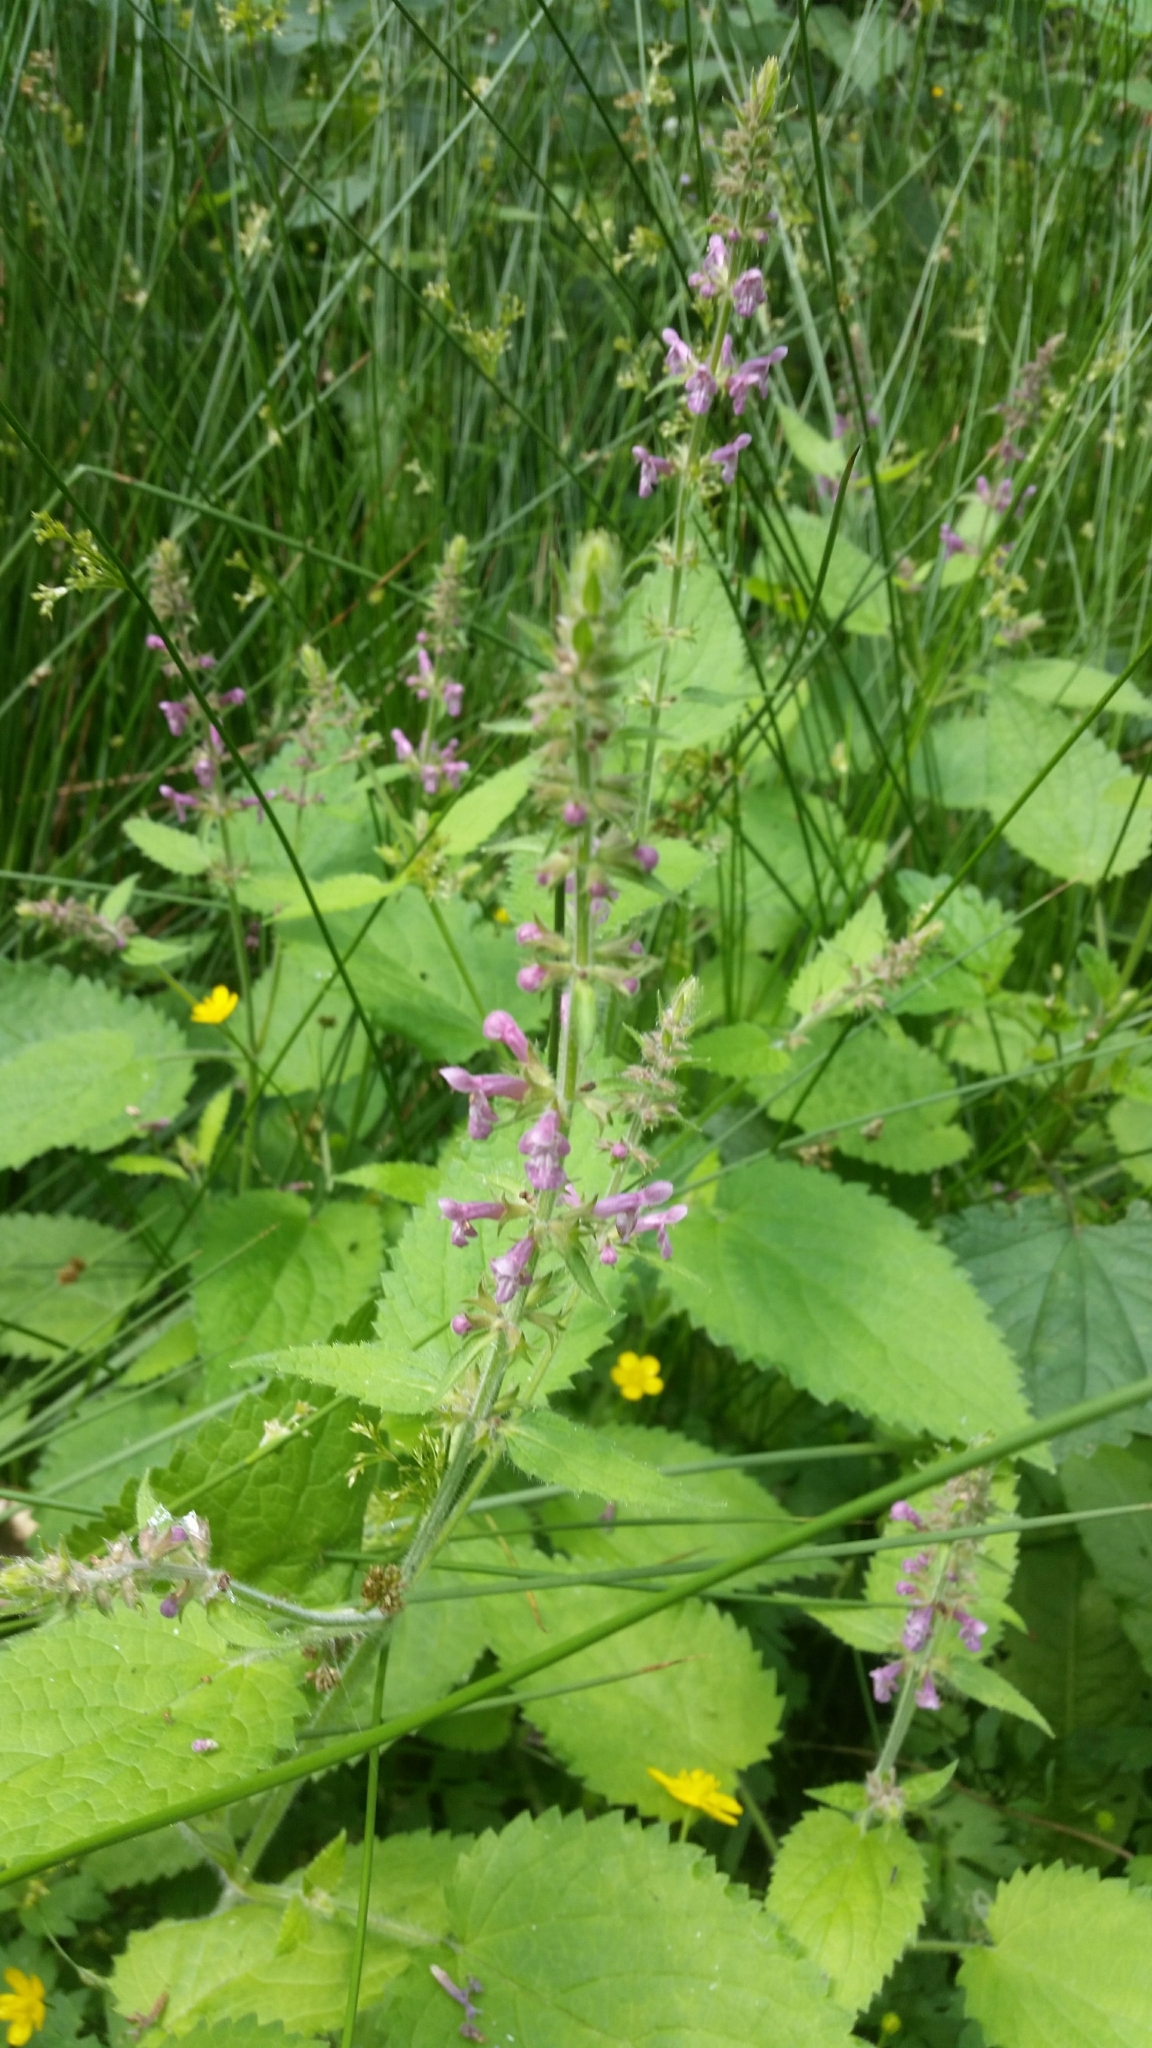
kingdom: Plantae
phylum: Tracheophyta
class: Magnoliopsida
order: Lamiales
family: Lamiaceae
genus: Stachys
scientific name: Stachys sylvatica
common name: Hedge woundwort
